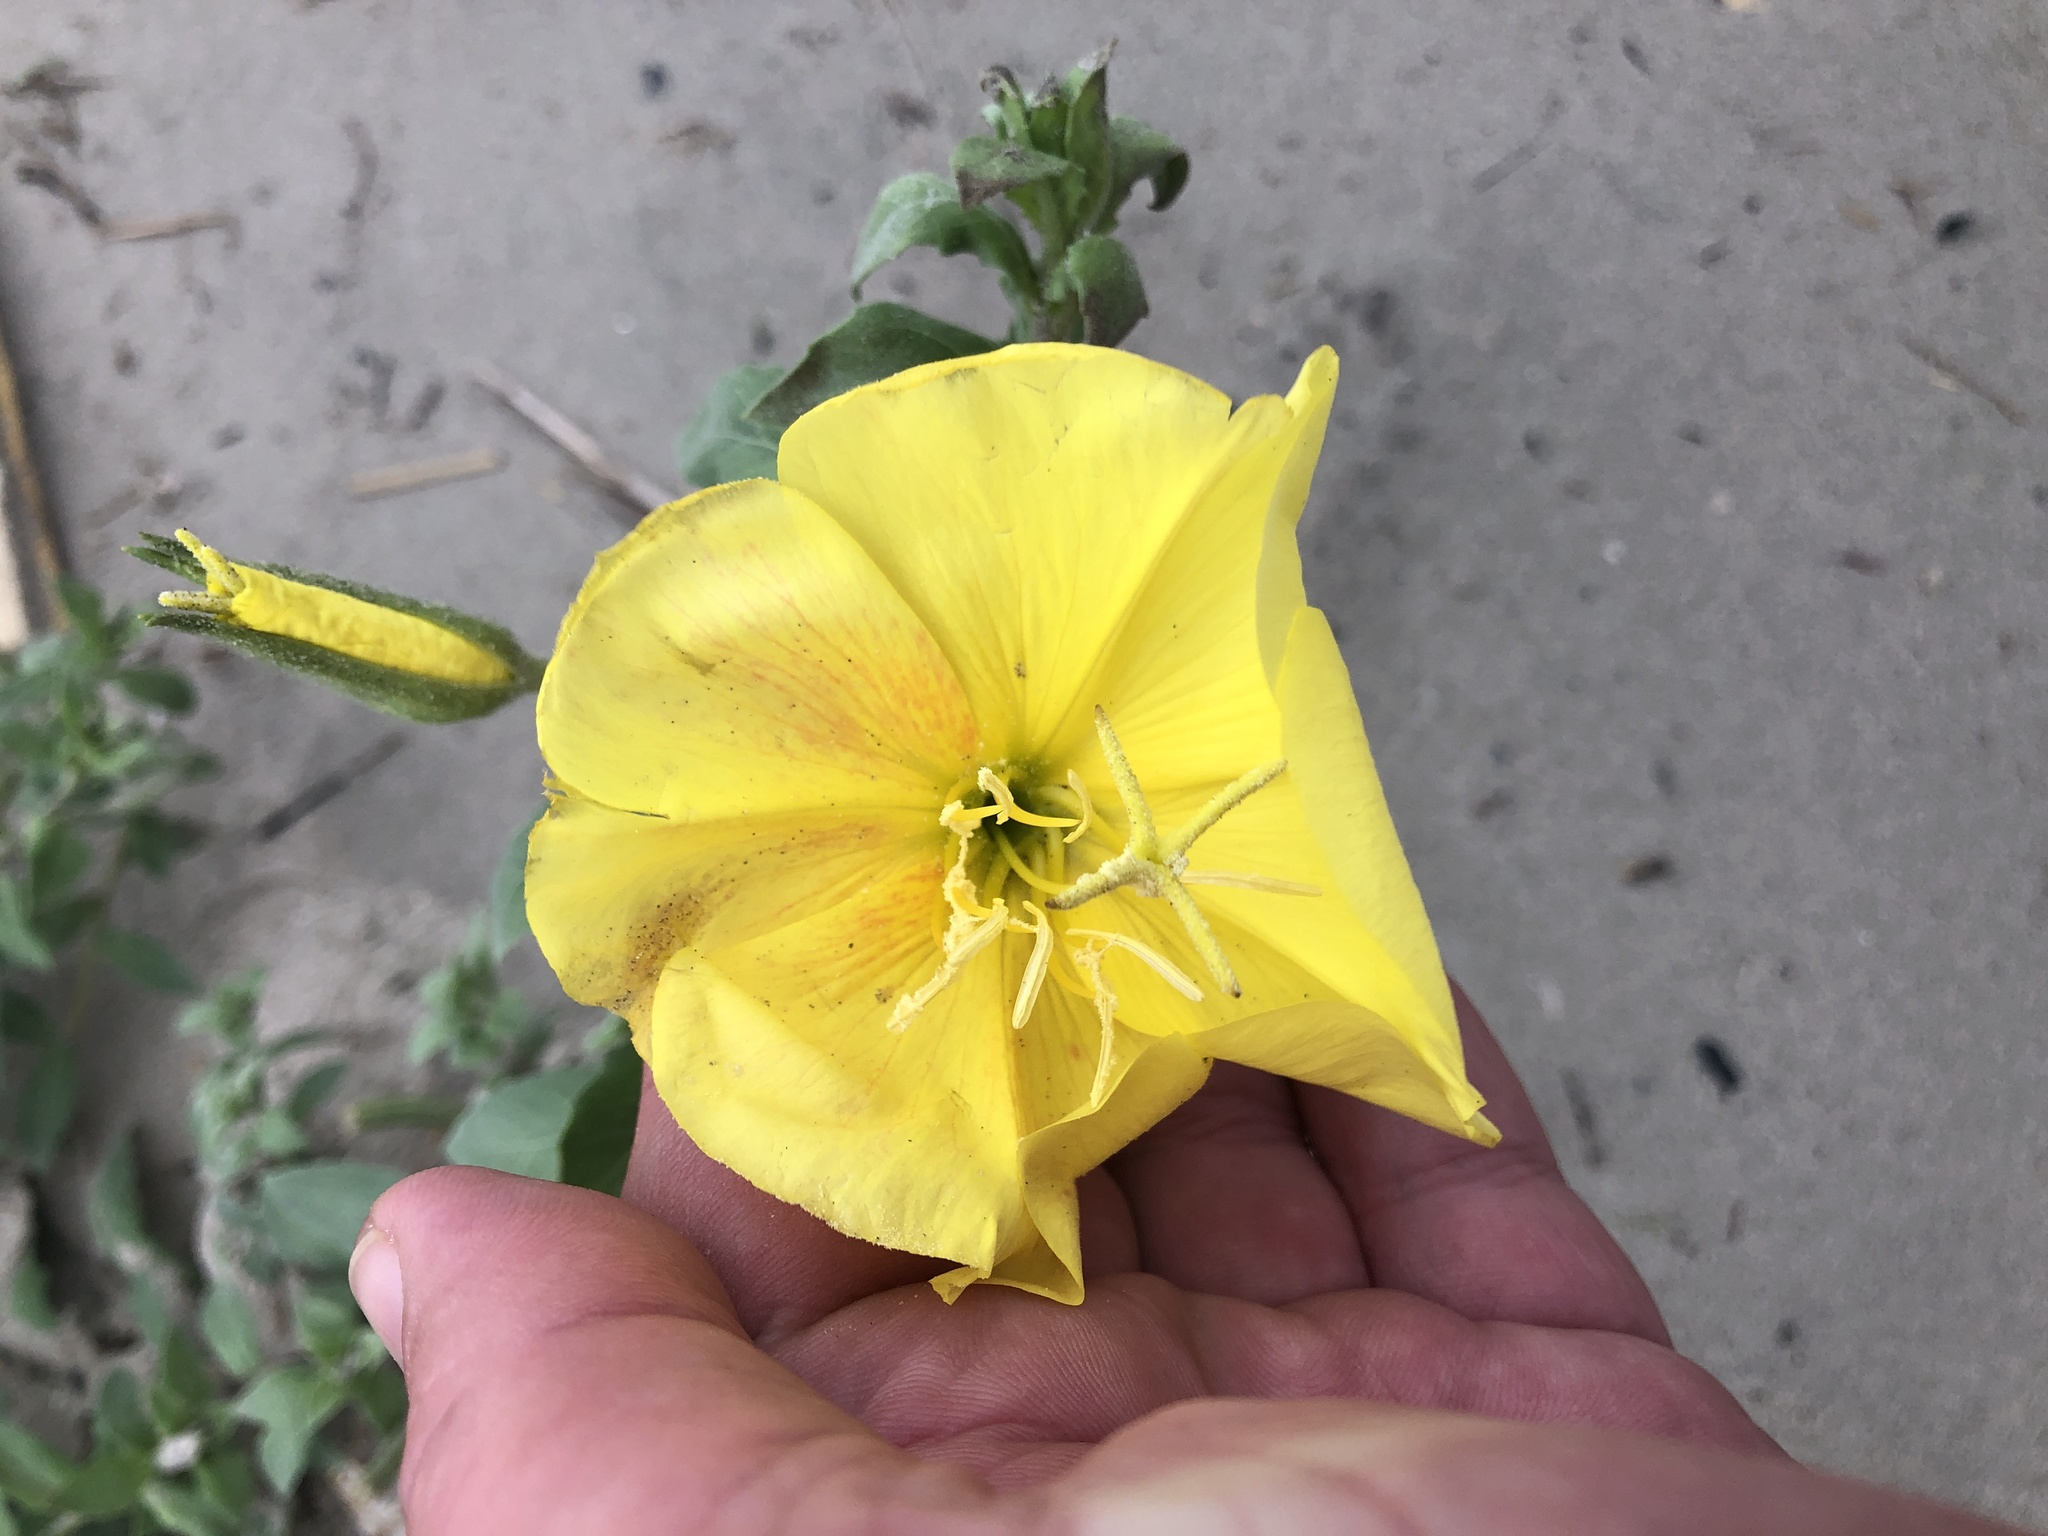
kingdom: Plantae
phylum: Tracheophyta
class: Magnoliopsida
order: Myrtales
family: Onagraceae
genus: Oenothera
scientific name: Oenothera drummondii
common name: Beach evening-primrose
